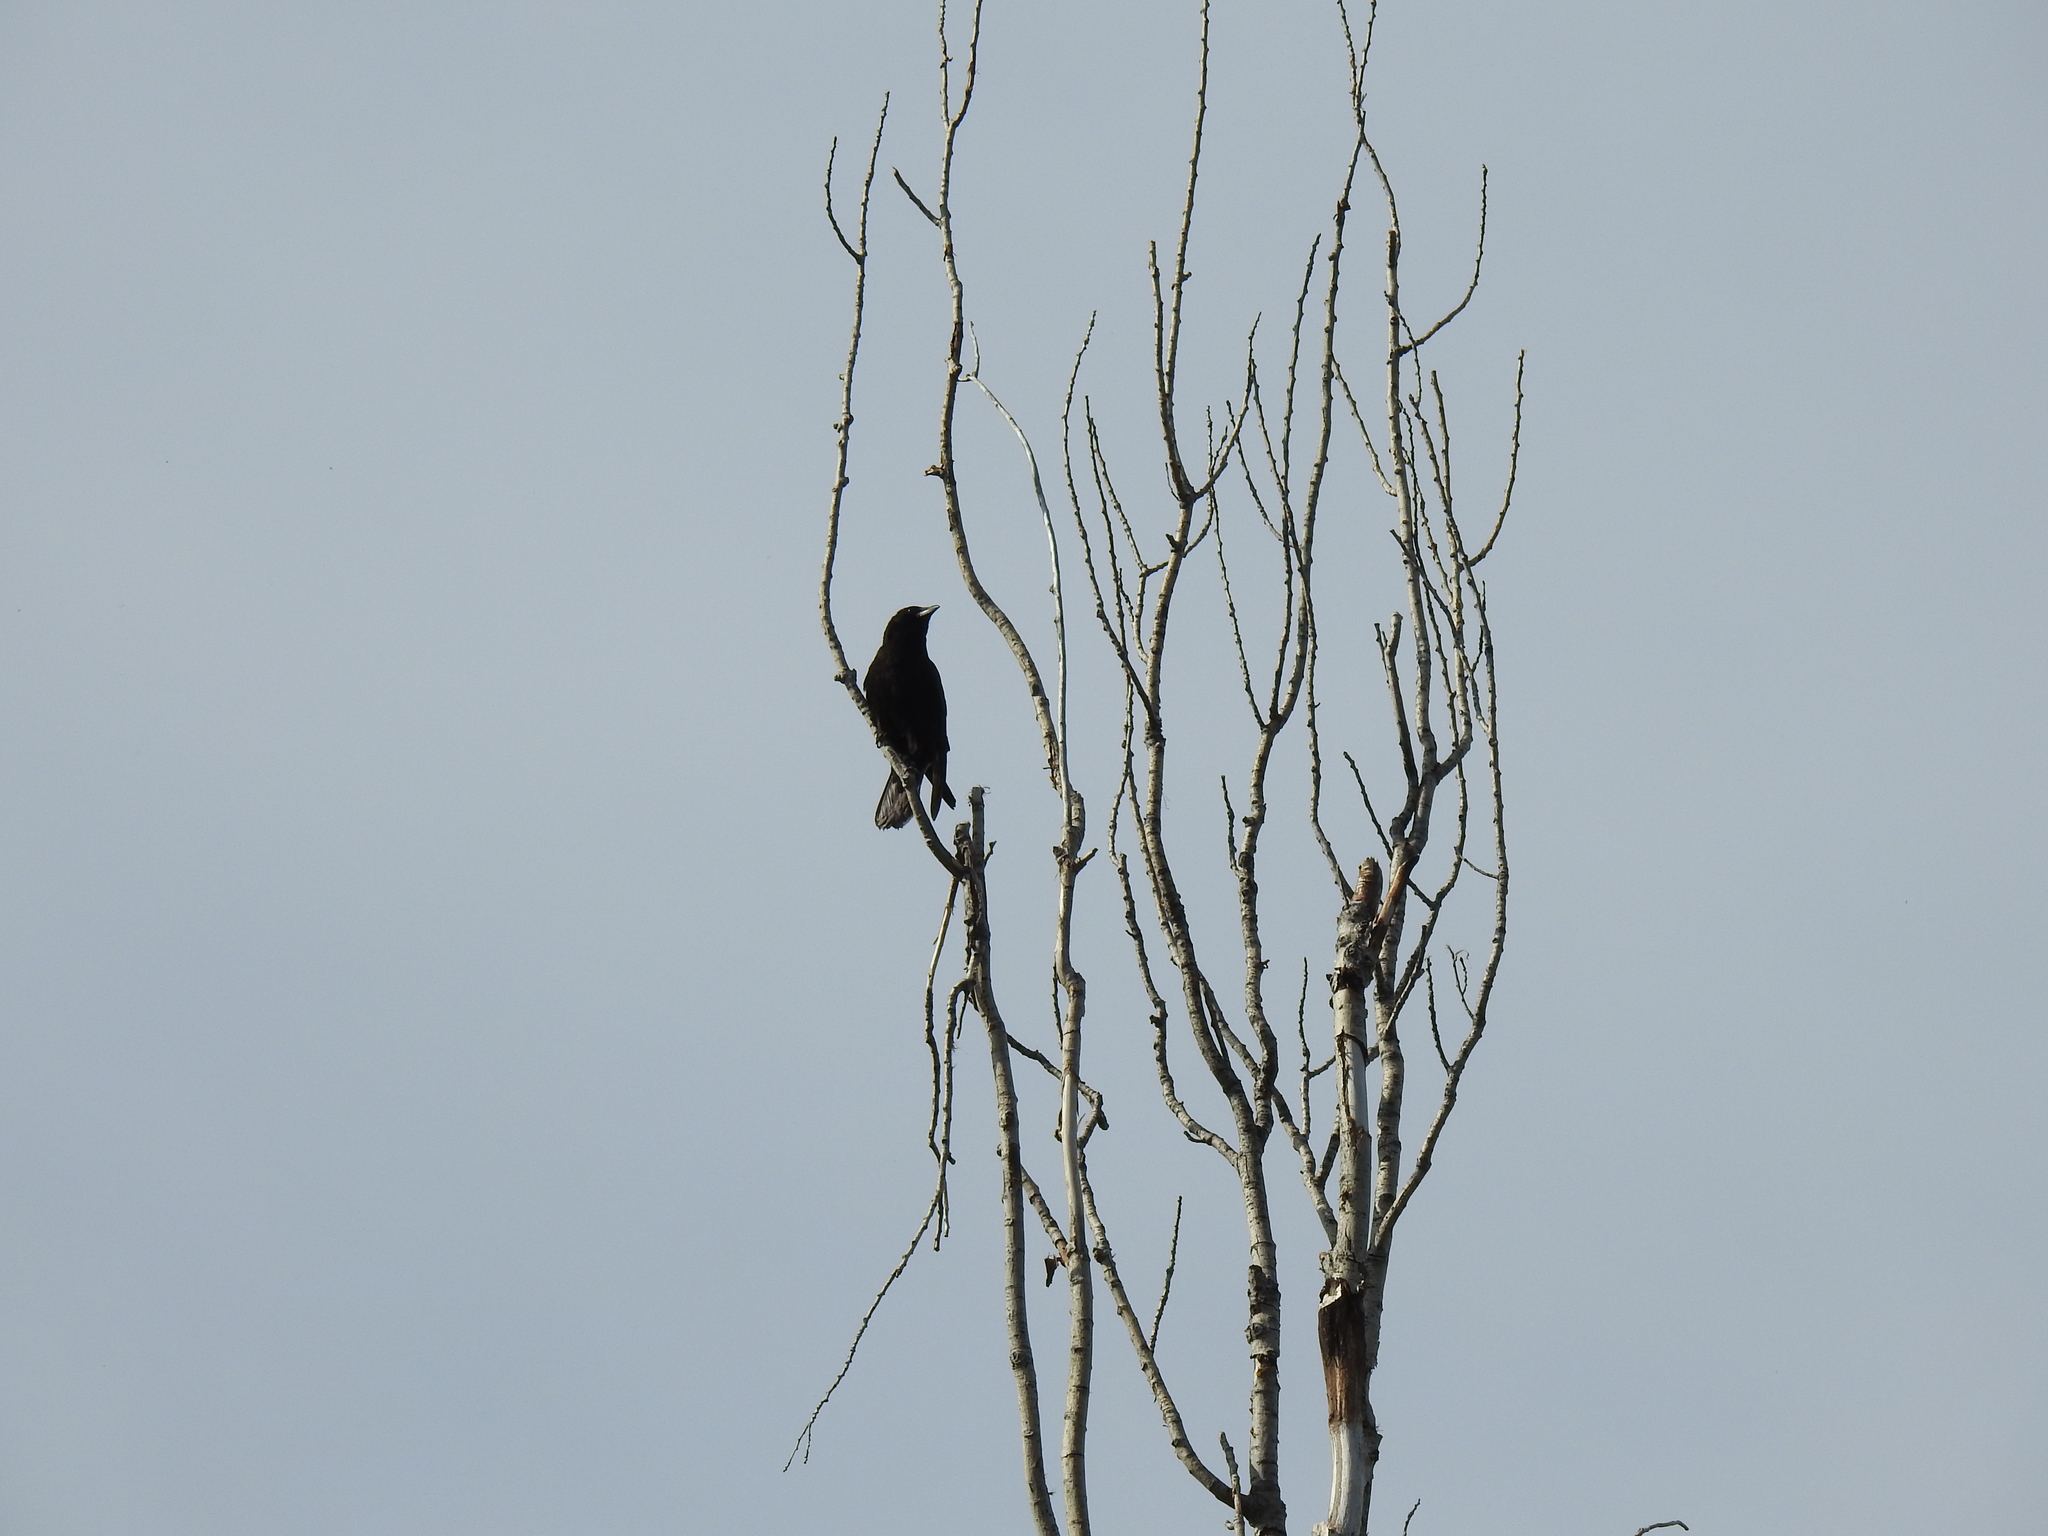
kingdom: Animalia
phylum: Chordata
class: Aves
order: Passeriformes
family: Corvidae
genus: Corvus
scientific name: Corvus brachyrhynchos
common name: American crow
